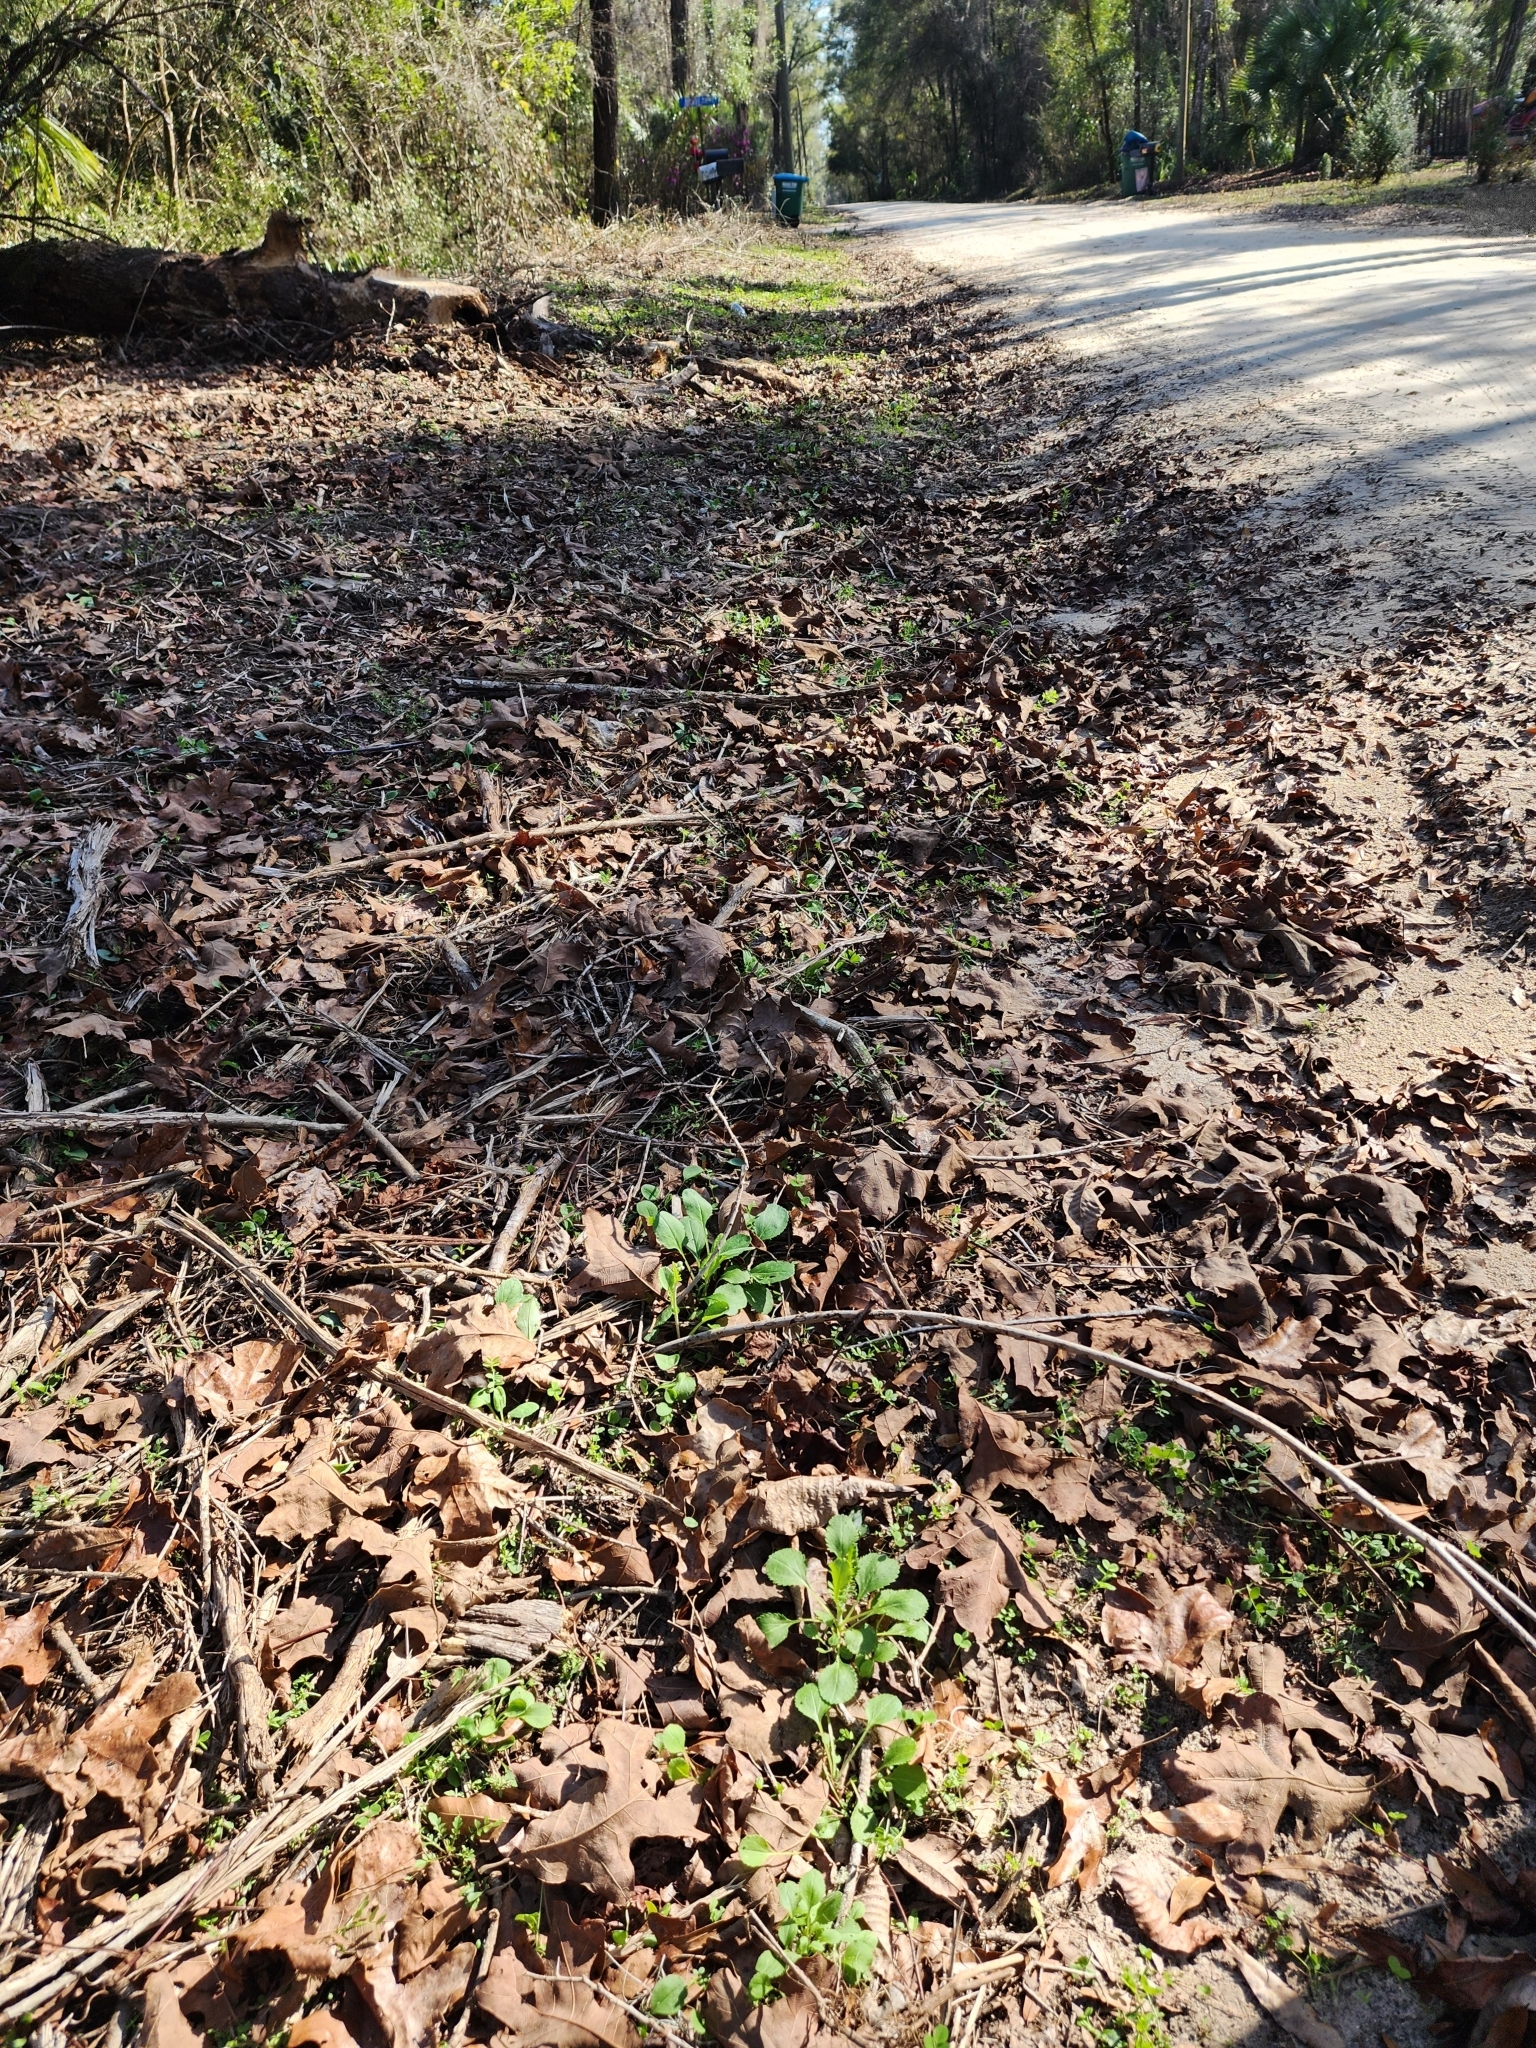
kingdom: Plantae
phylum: Tracheophyta
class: Magnoliopsida
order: Asterales
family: Asteraceae
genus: Packera
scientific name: Packera obovata
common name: Round-leaf ragwort
